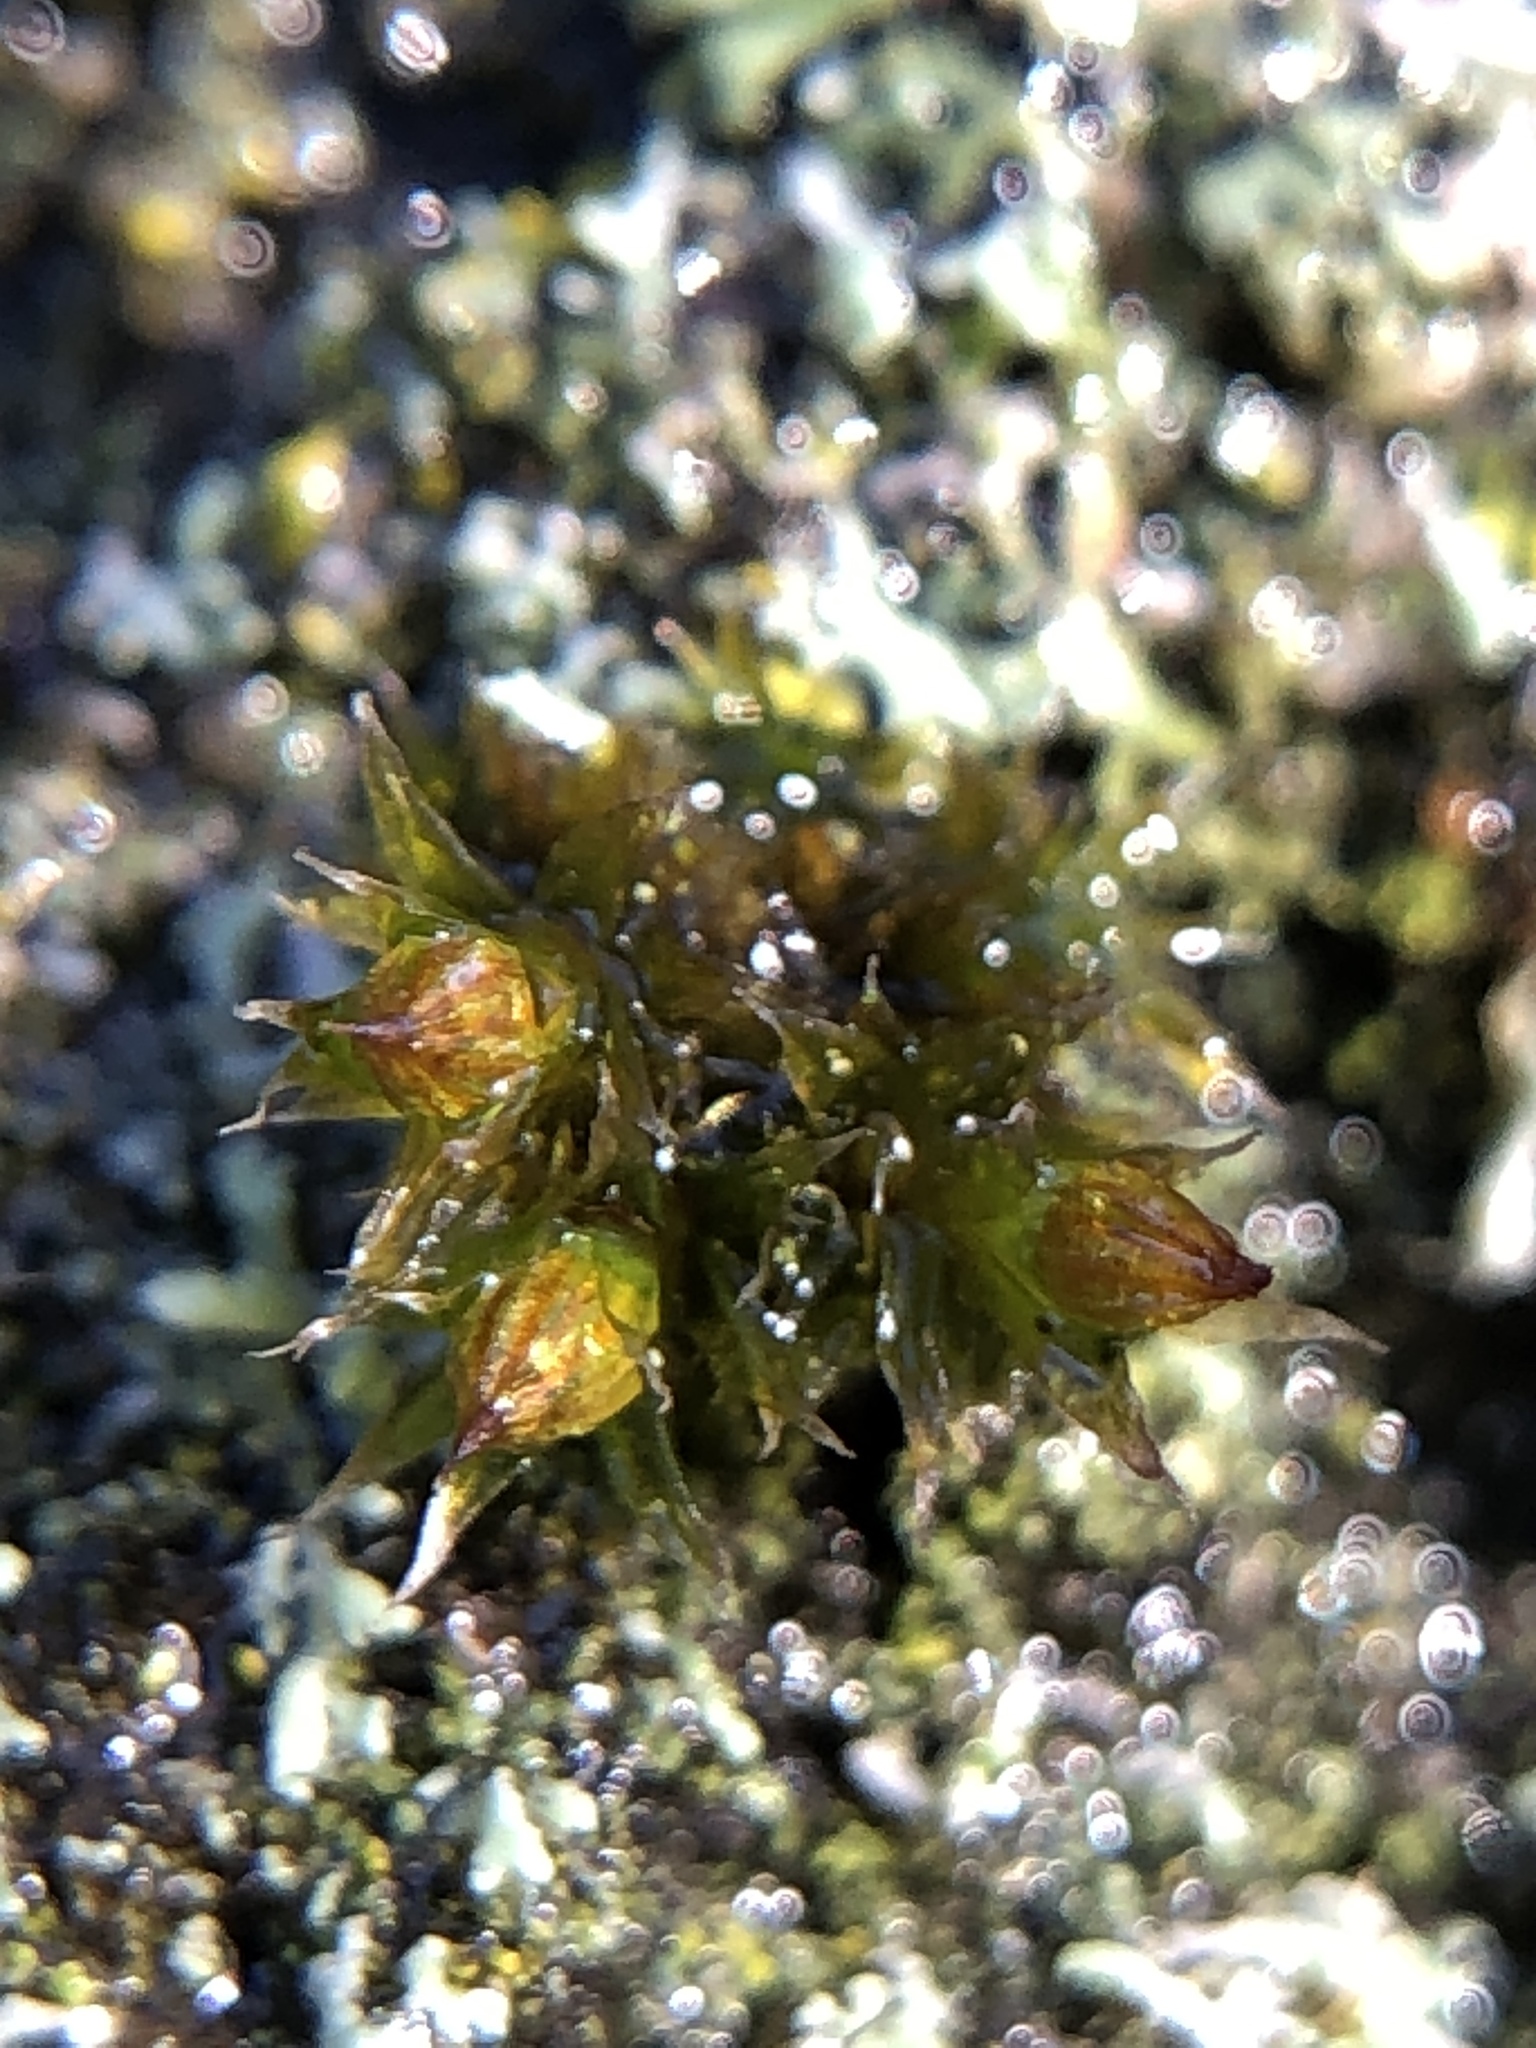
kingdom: Plantae
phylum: Bryophyta
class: Bryopsida
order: Orthotrichales
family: Orthotrichaceae
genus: Orthotrichum
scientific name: Orthotrichum diaphanum
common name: White-tipped bristle-moss
